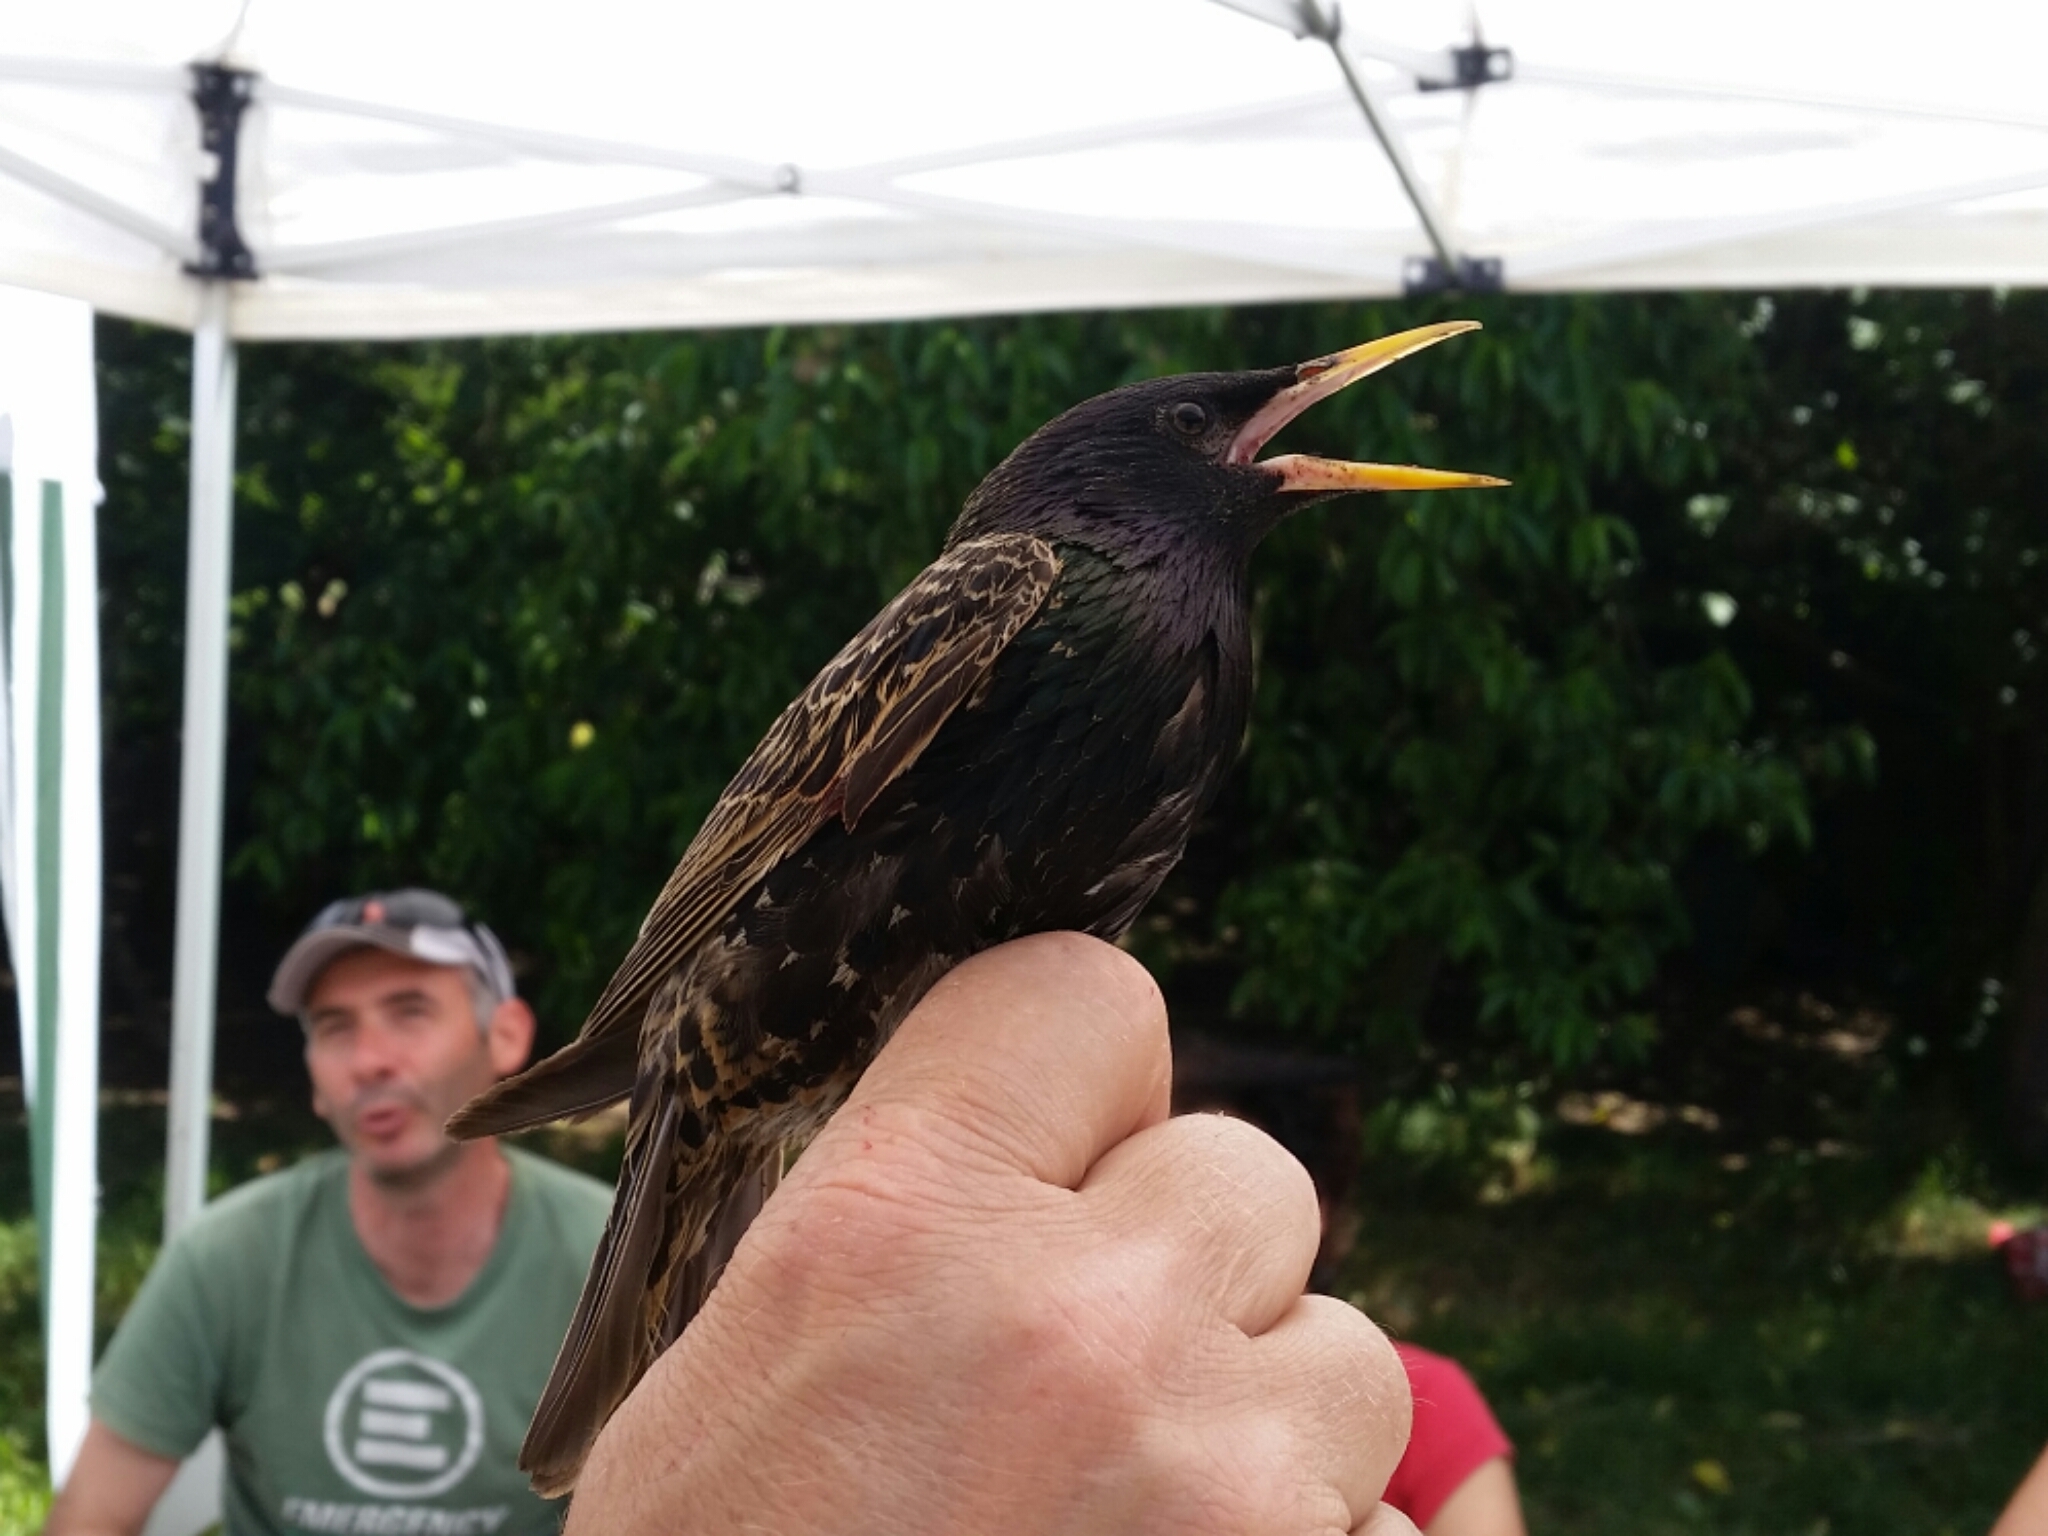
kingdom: Animalia
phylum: Chordata
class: Aves
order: Passeriformes
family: Sturnidae
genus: Sturnus
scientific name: Sturnus vulgaris
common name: Common starling
